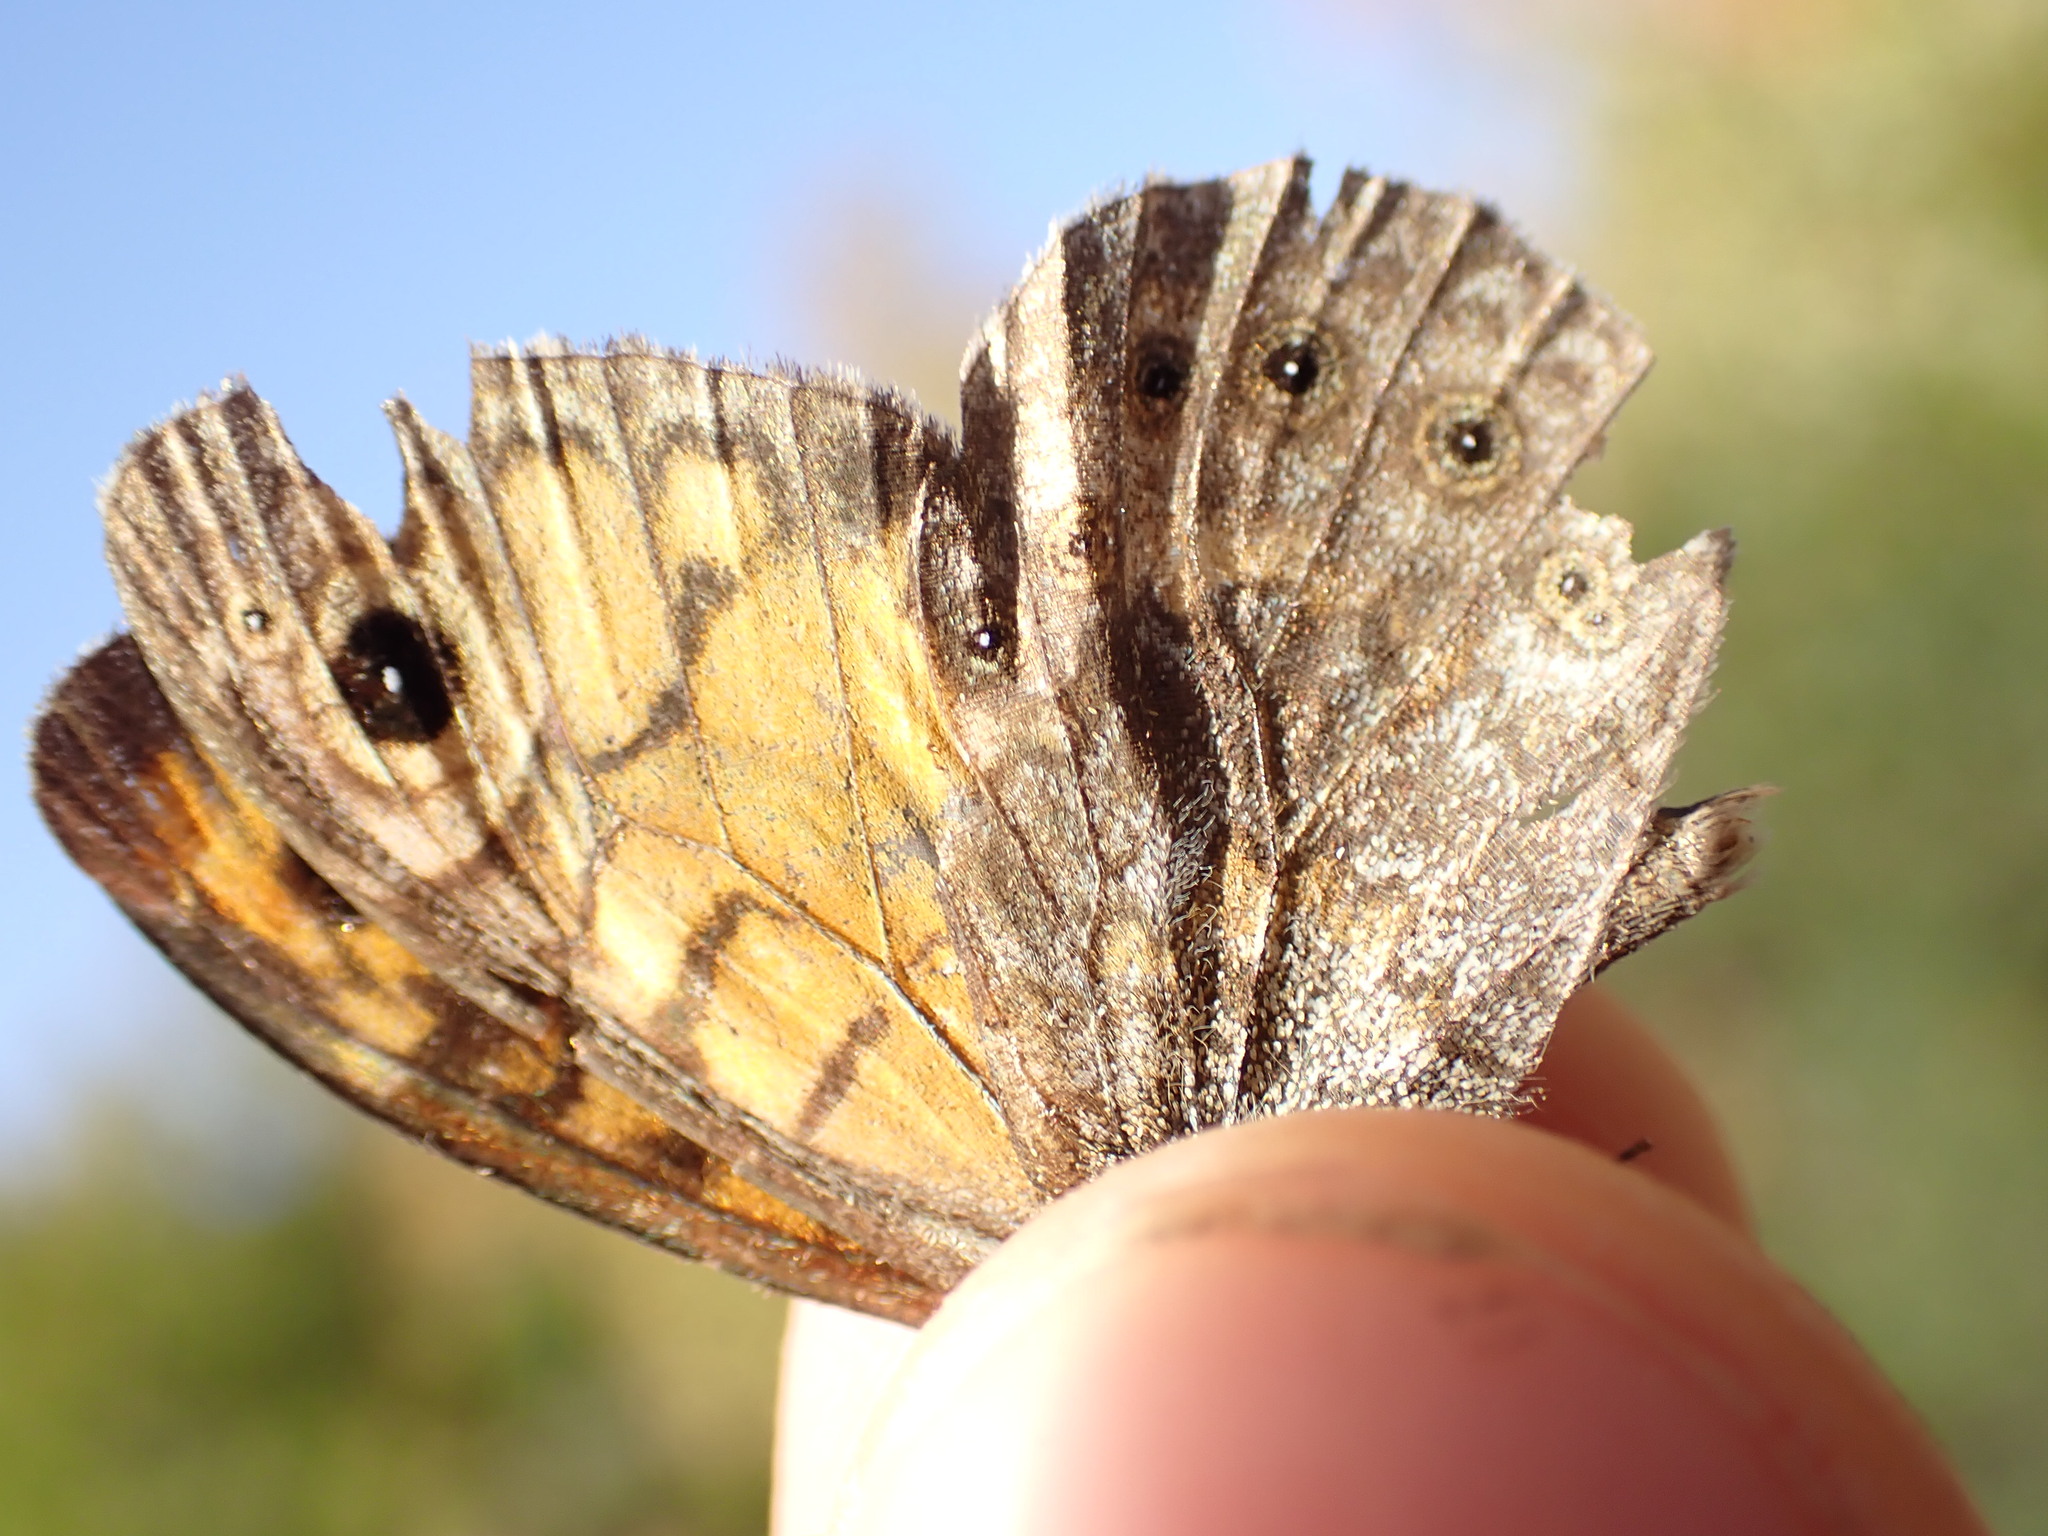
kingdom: Animalia
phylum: Arthropoda
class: Insecta
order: Lepidoptera
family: Nymphalidae
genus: Pararge
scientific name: Pararge Lasiommata megera
